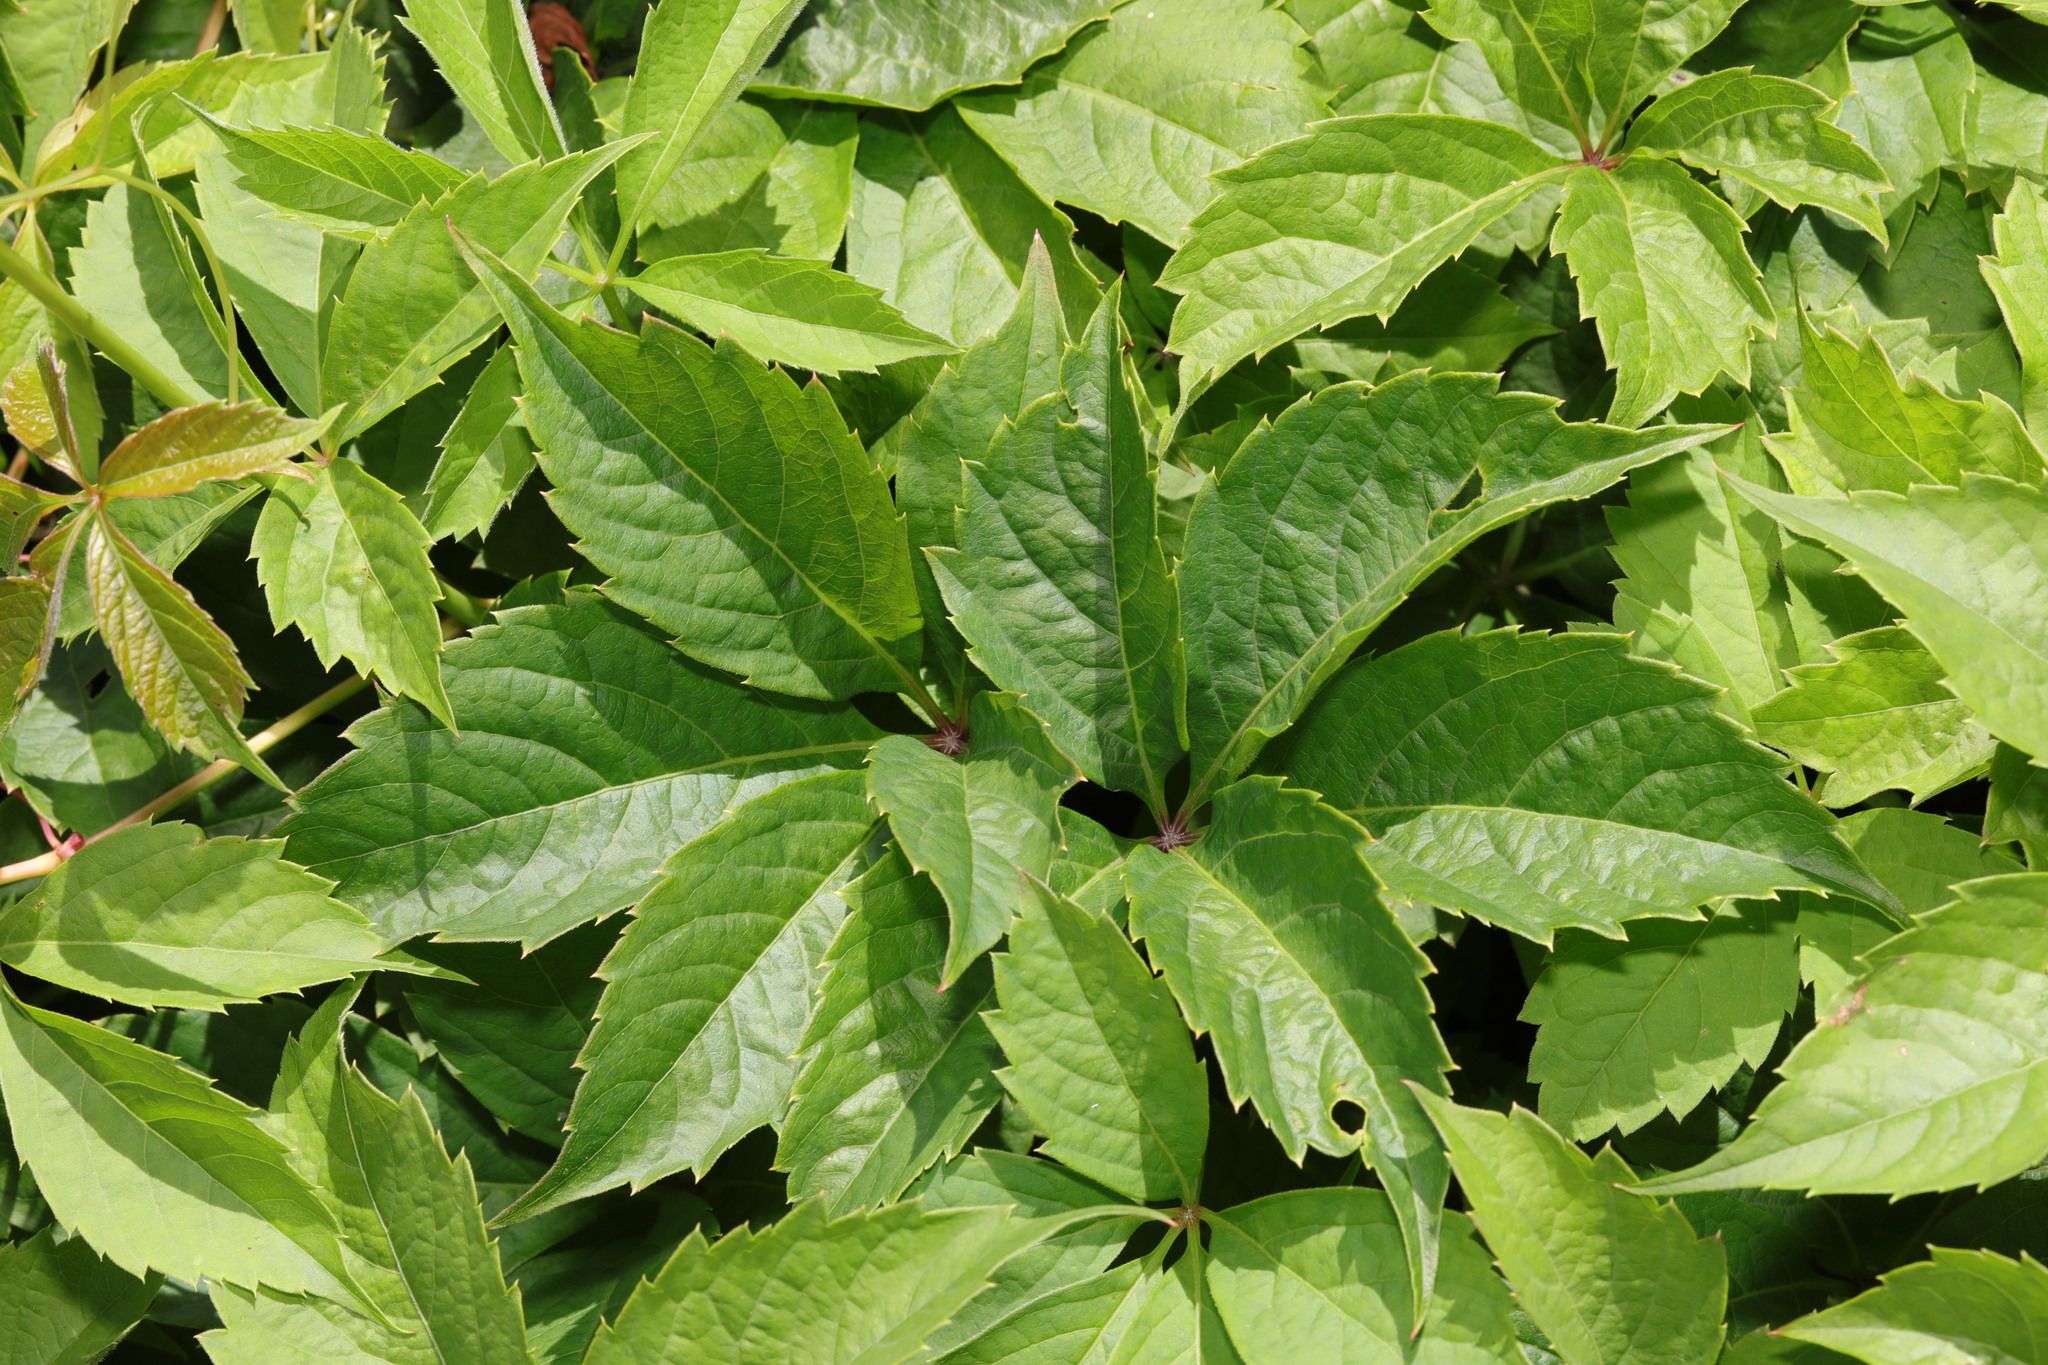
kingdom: Plantae
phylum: Tracheophyta
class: Magnoliopsida
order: Vitales
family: Vitaceae
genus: Parthenocissus
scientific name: Parthenocissus quinquefolia
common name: Virginia-creeper
